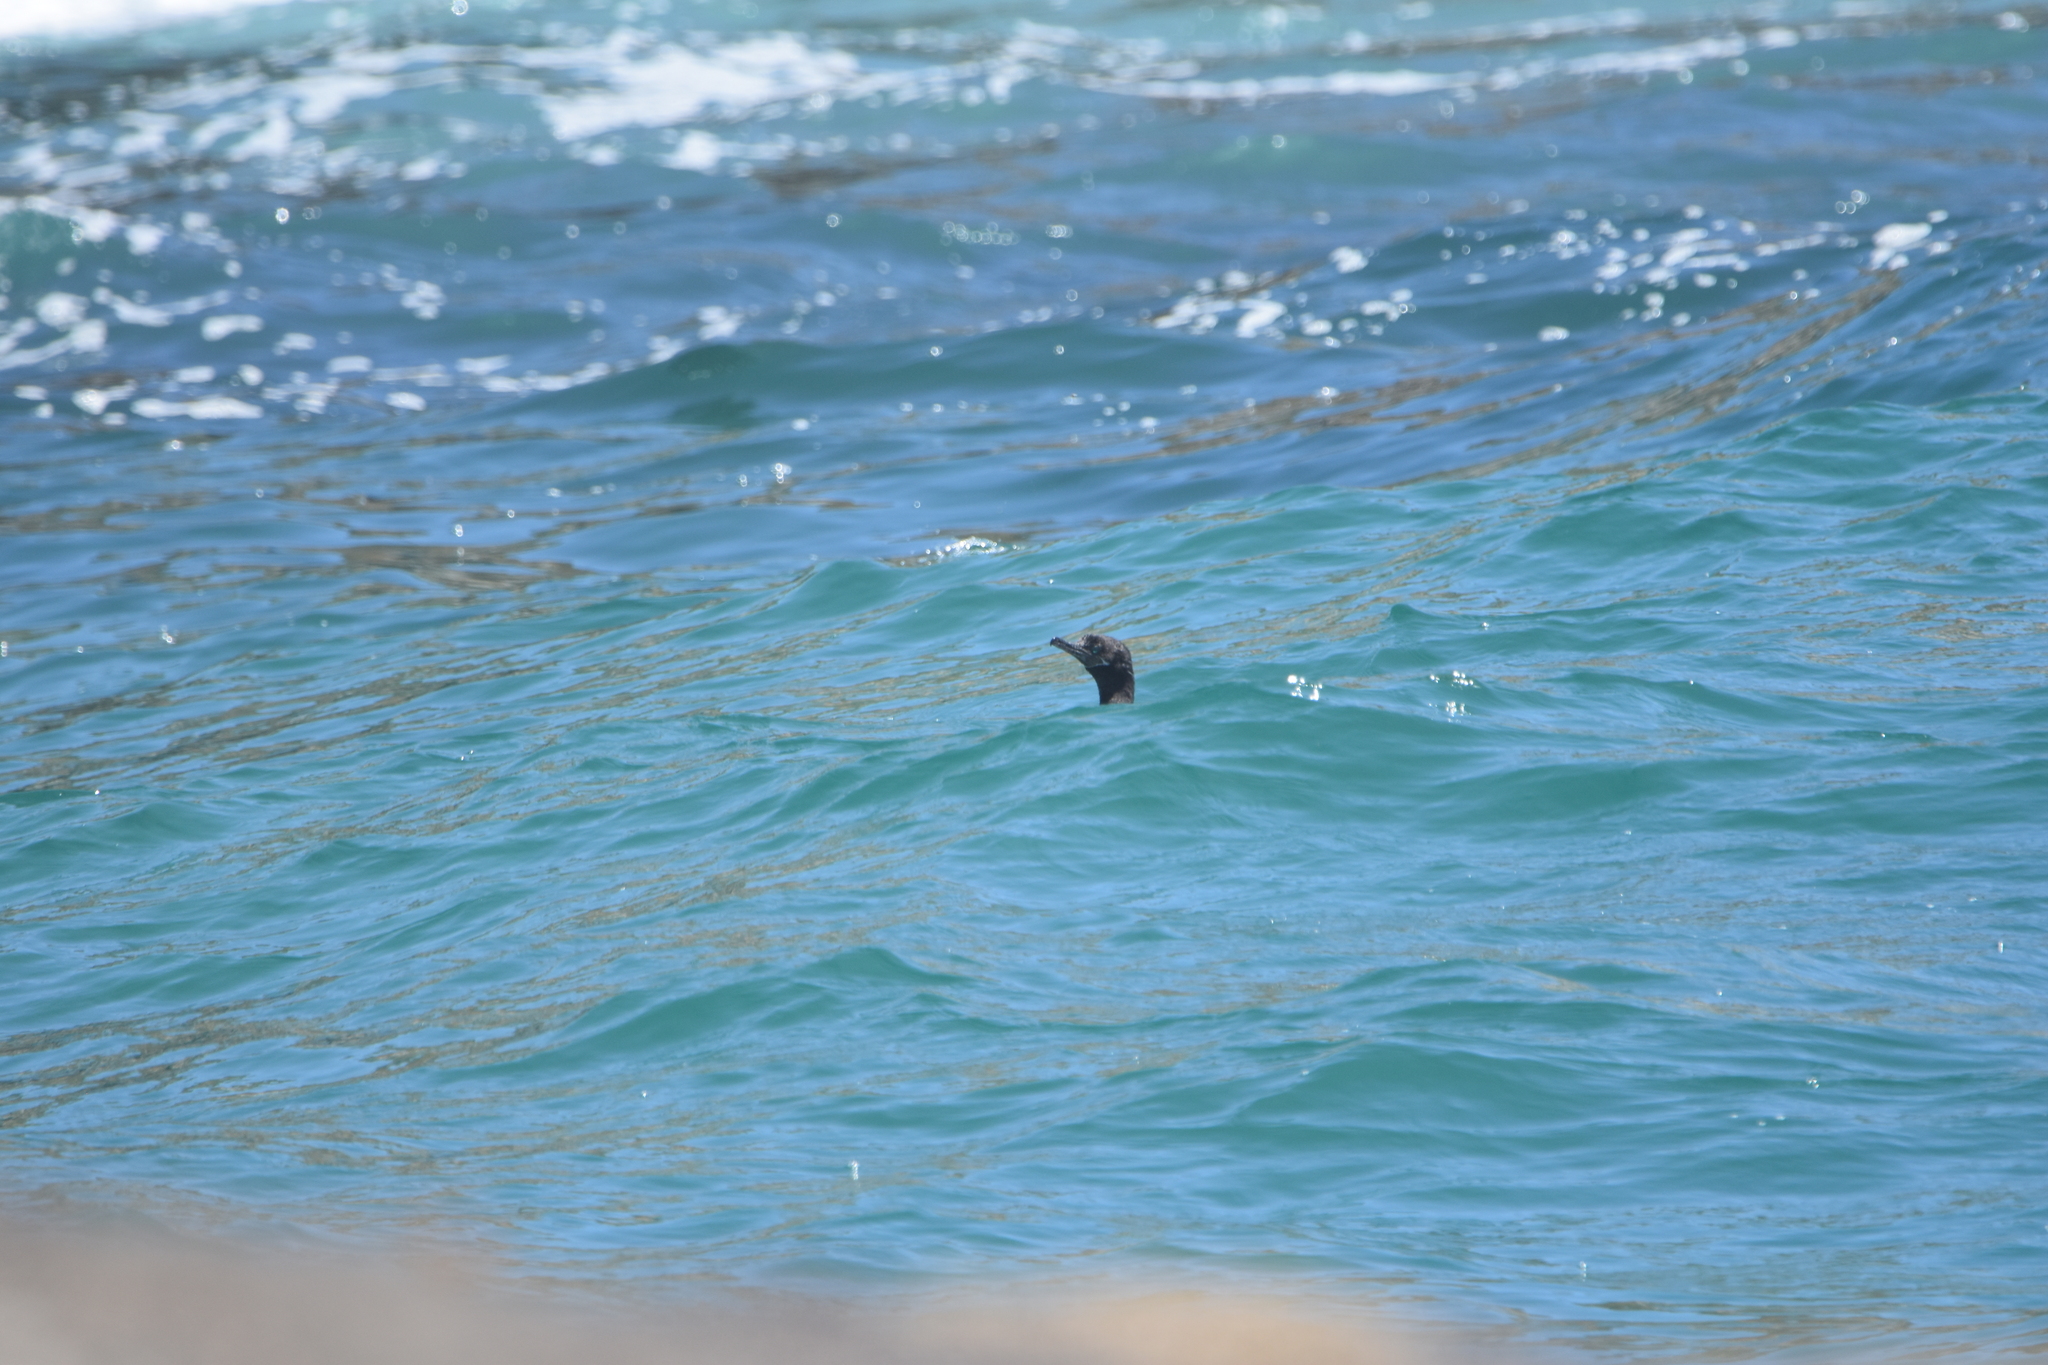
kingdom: Animalia
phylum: Chordata
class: Aves
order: Suliformes
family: Phalacrocoracidae
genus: Phalacrocorax
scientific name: Phalacrocorax brasilianus
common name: Neotropic cormorant
